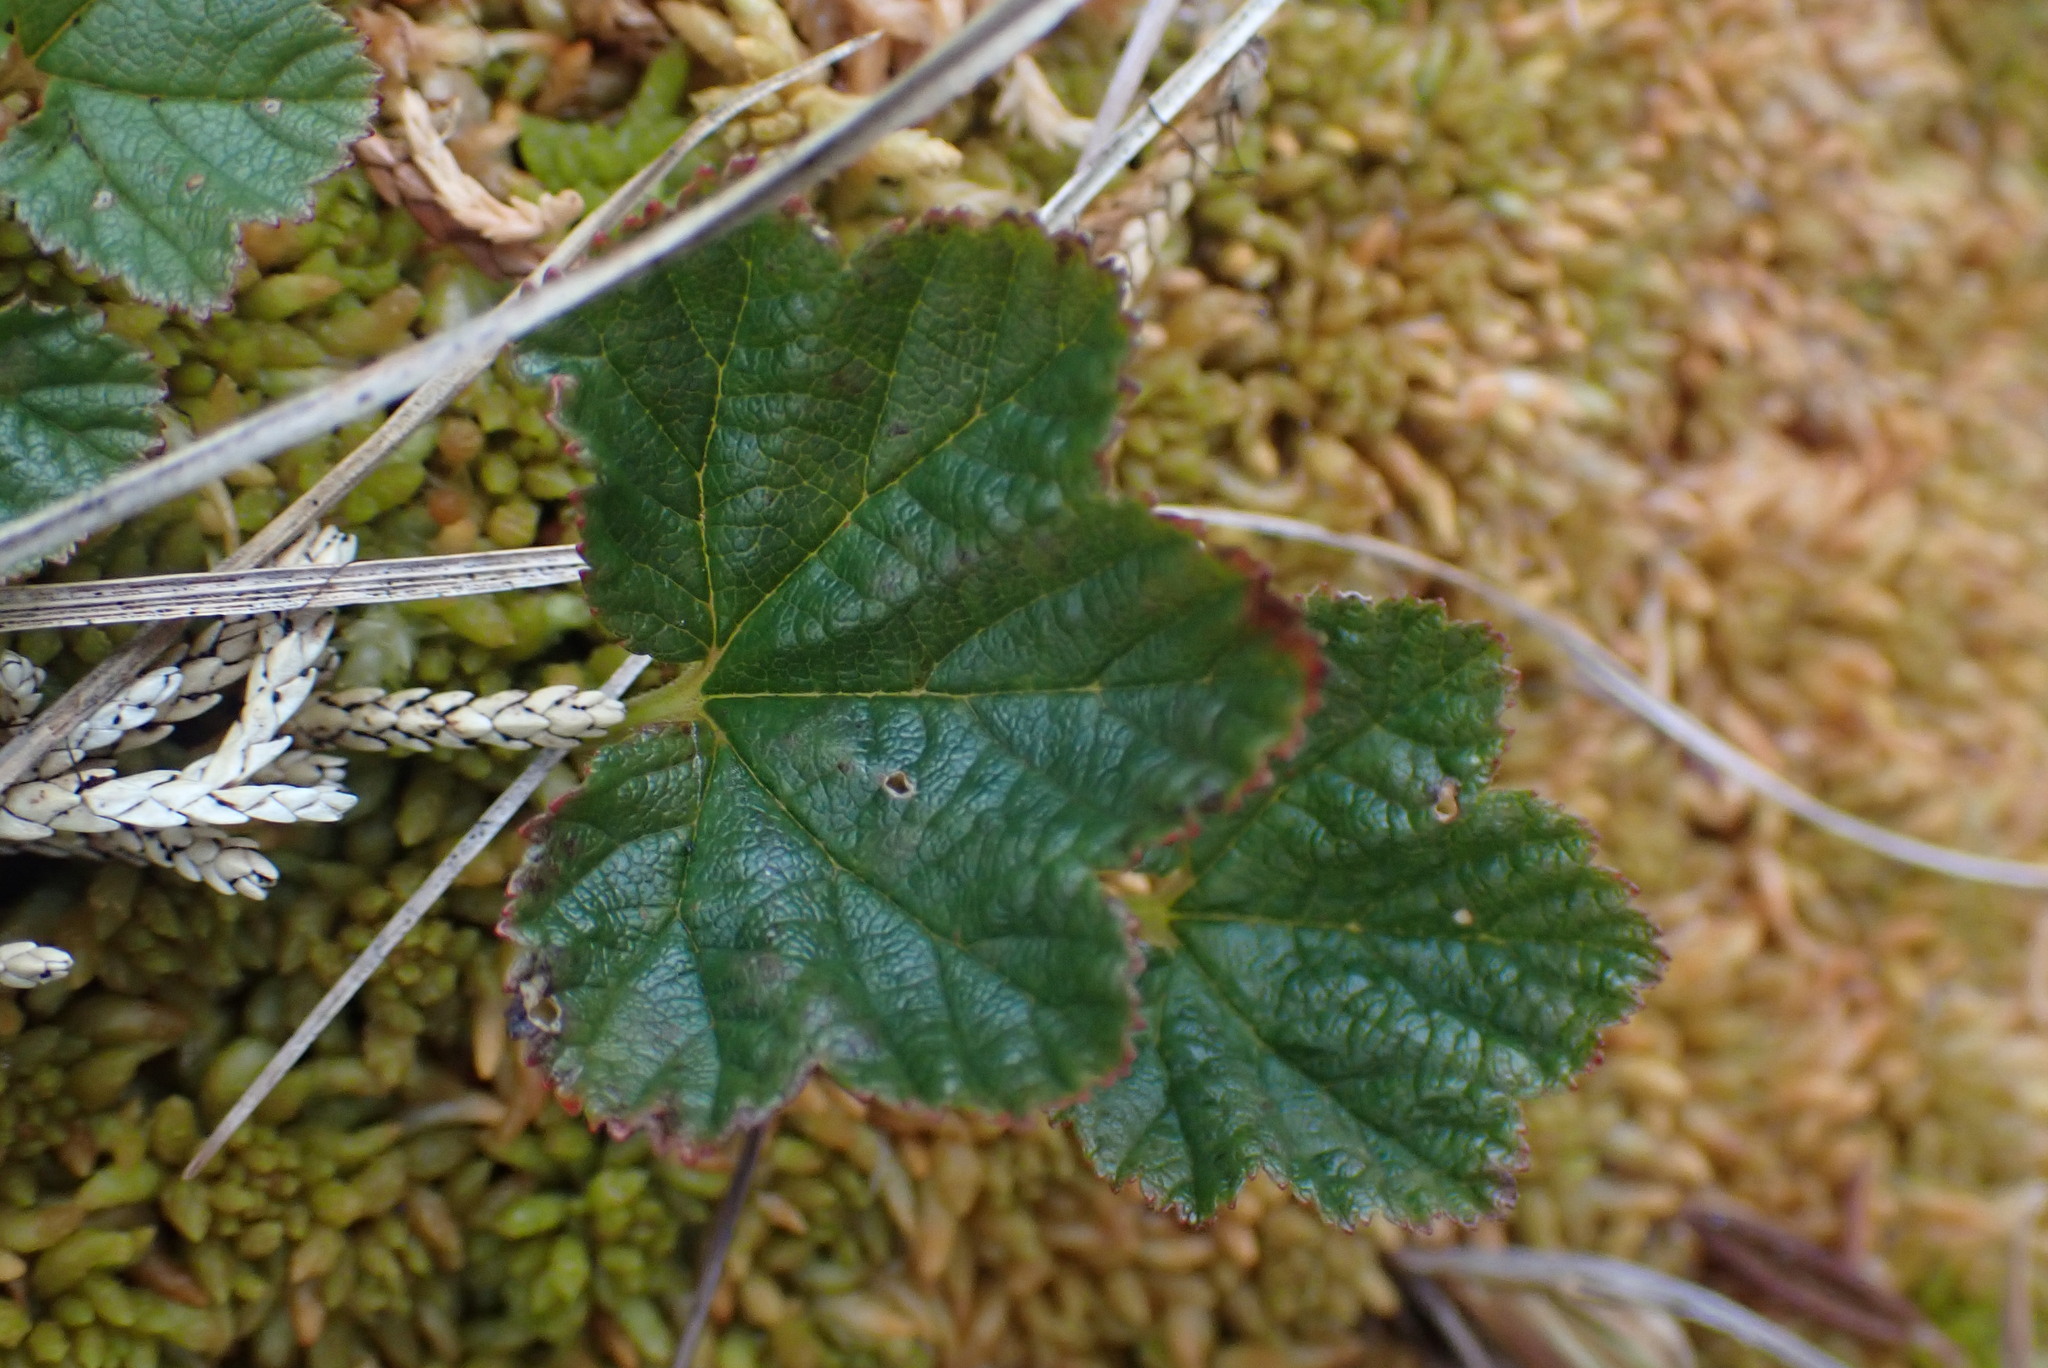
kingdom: Plantae
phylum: Tracheophyta
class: Magnoliopsida
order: Rosales
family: Rosaceae
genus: Rubus
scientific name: Rubus chamaemorus
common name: Cloudberry
